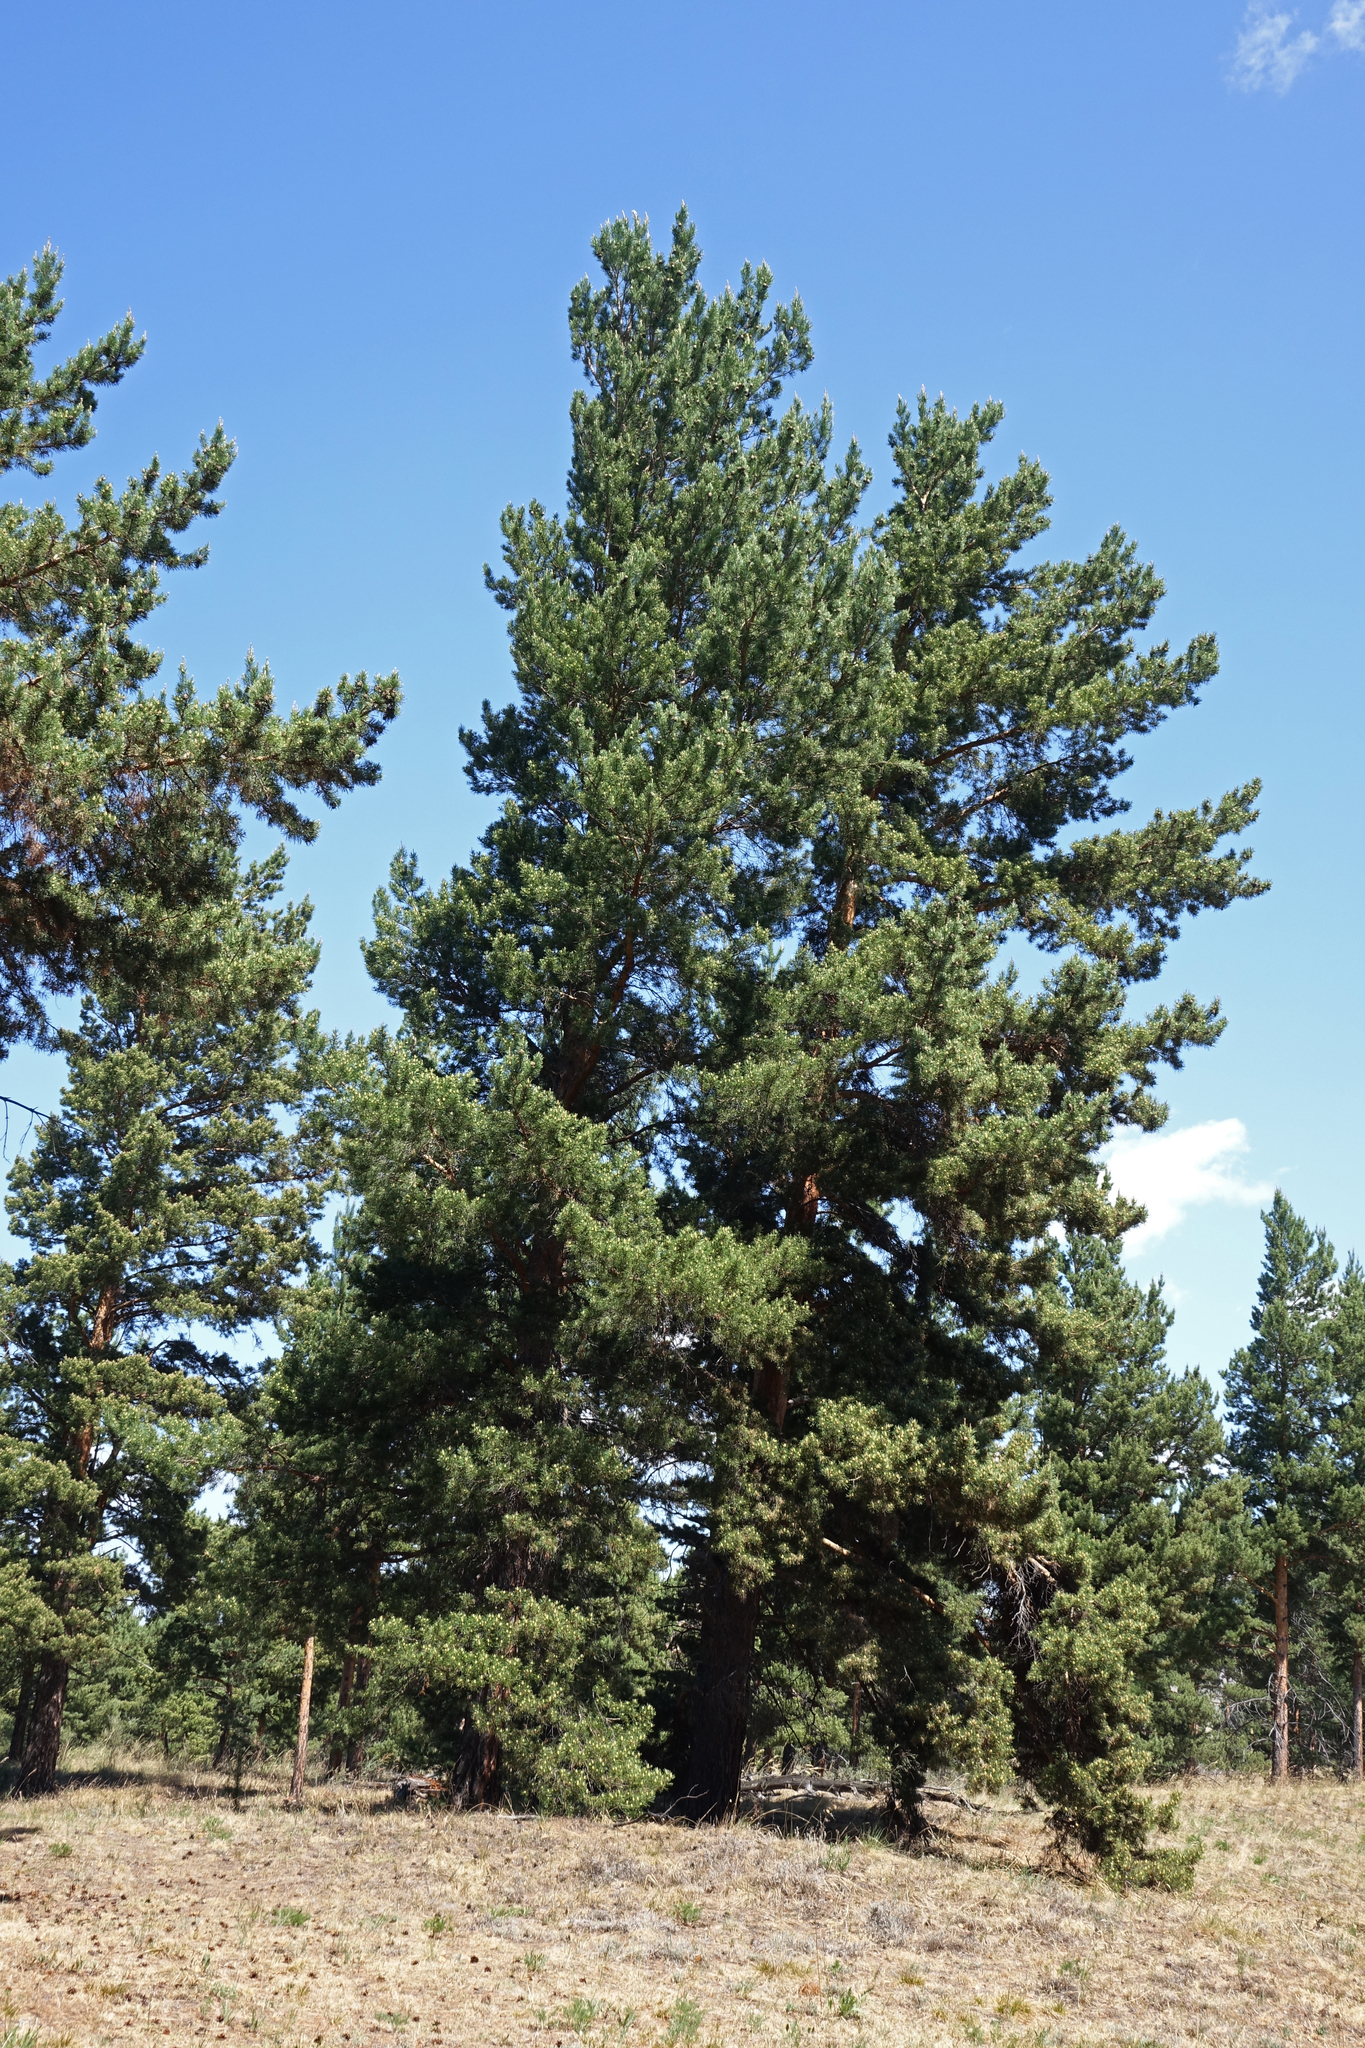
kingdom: Plantae
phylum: Tracheophyta
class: Pinopsida
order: Pinales
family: Pinaceae
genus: Pinus
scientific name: Pinus sylvestris
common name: Scots pine
